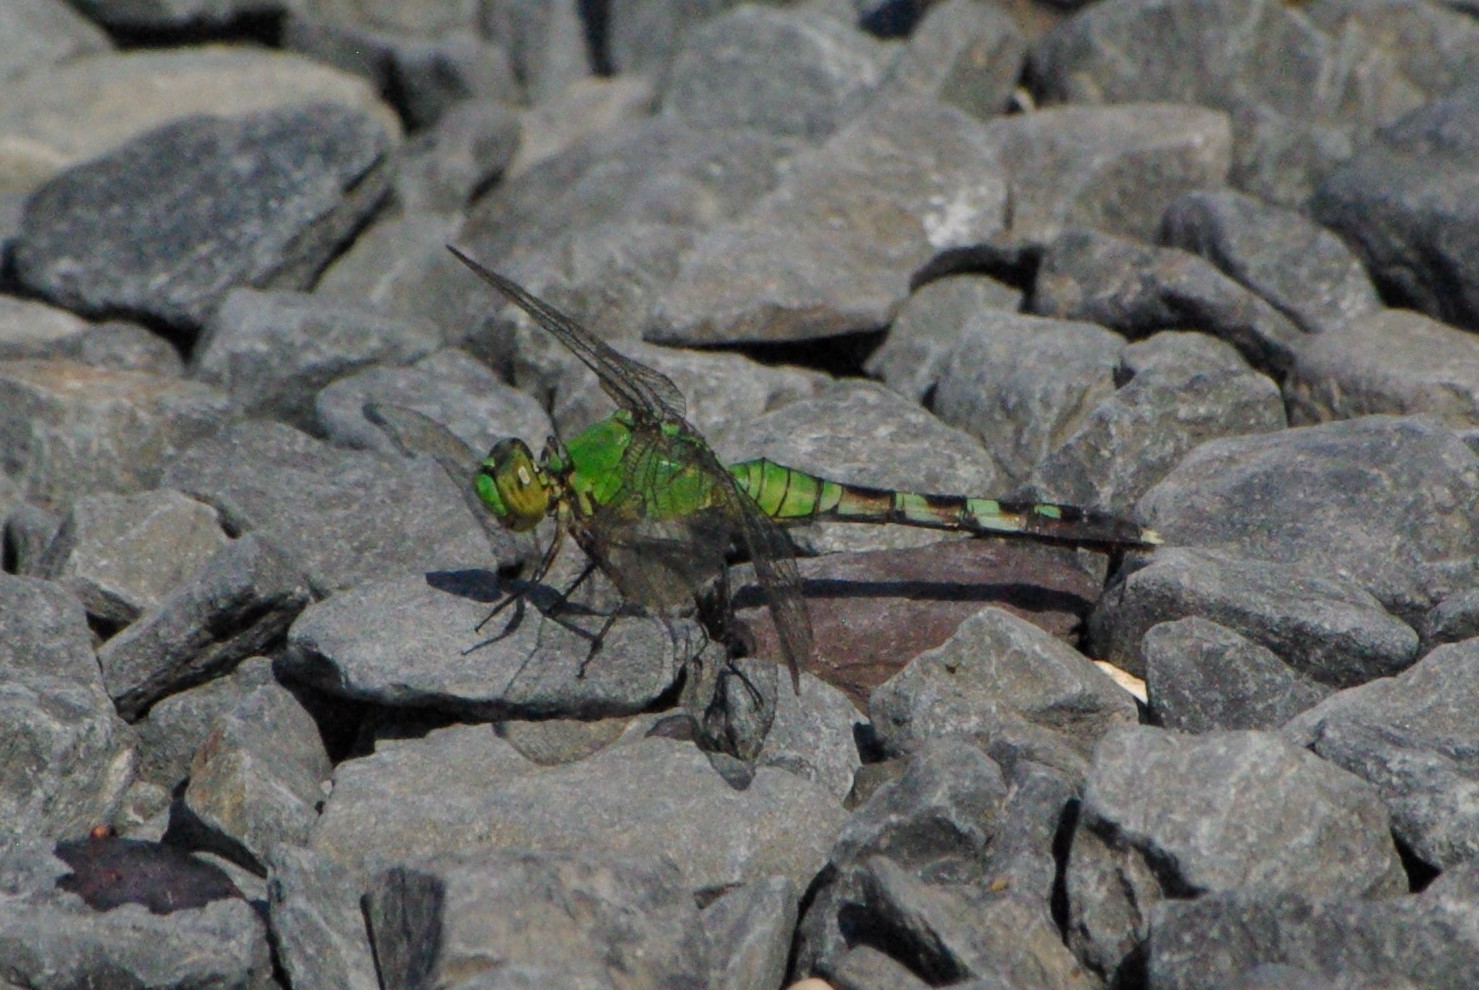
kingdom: Animalia
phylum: Arthropoda
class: Insecta
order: Odonata
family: Libellulidae
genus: Erythemis
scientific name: Erythemis simplicicollis
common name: Eastern pondhawk
